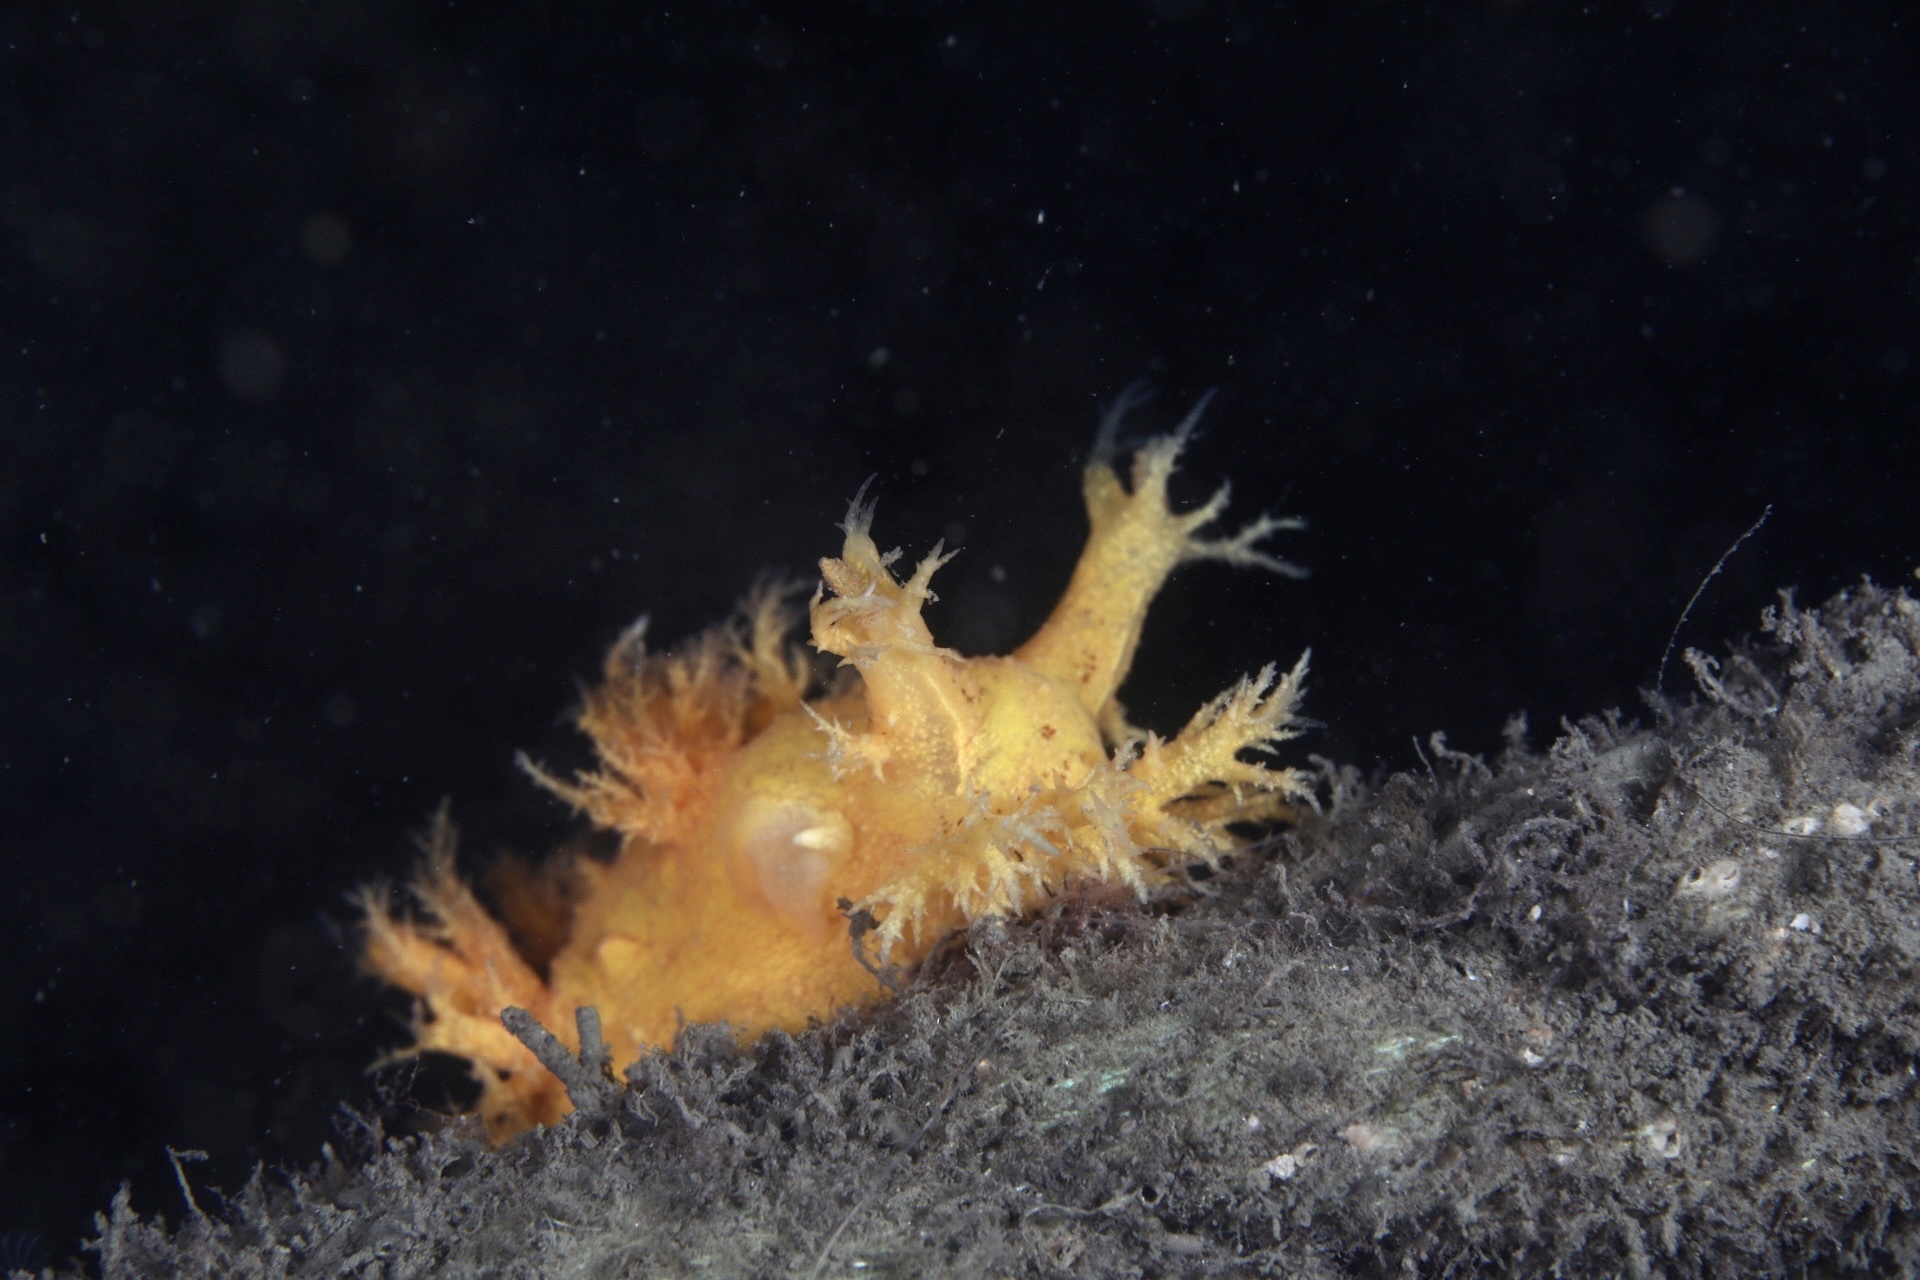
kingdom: Animalia
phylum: Mollusca
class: Gastropoda
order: Nudibranchia
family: Dendronotidae
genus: Dendronotus
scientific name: Dendronotus europaeus
